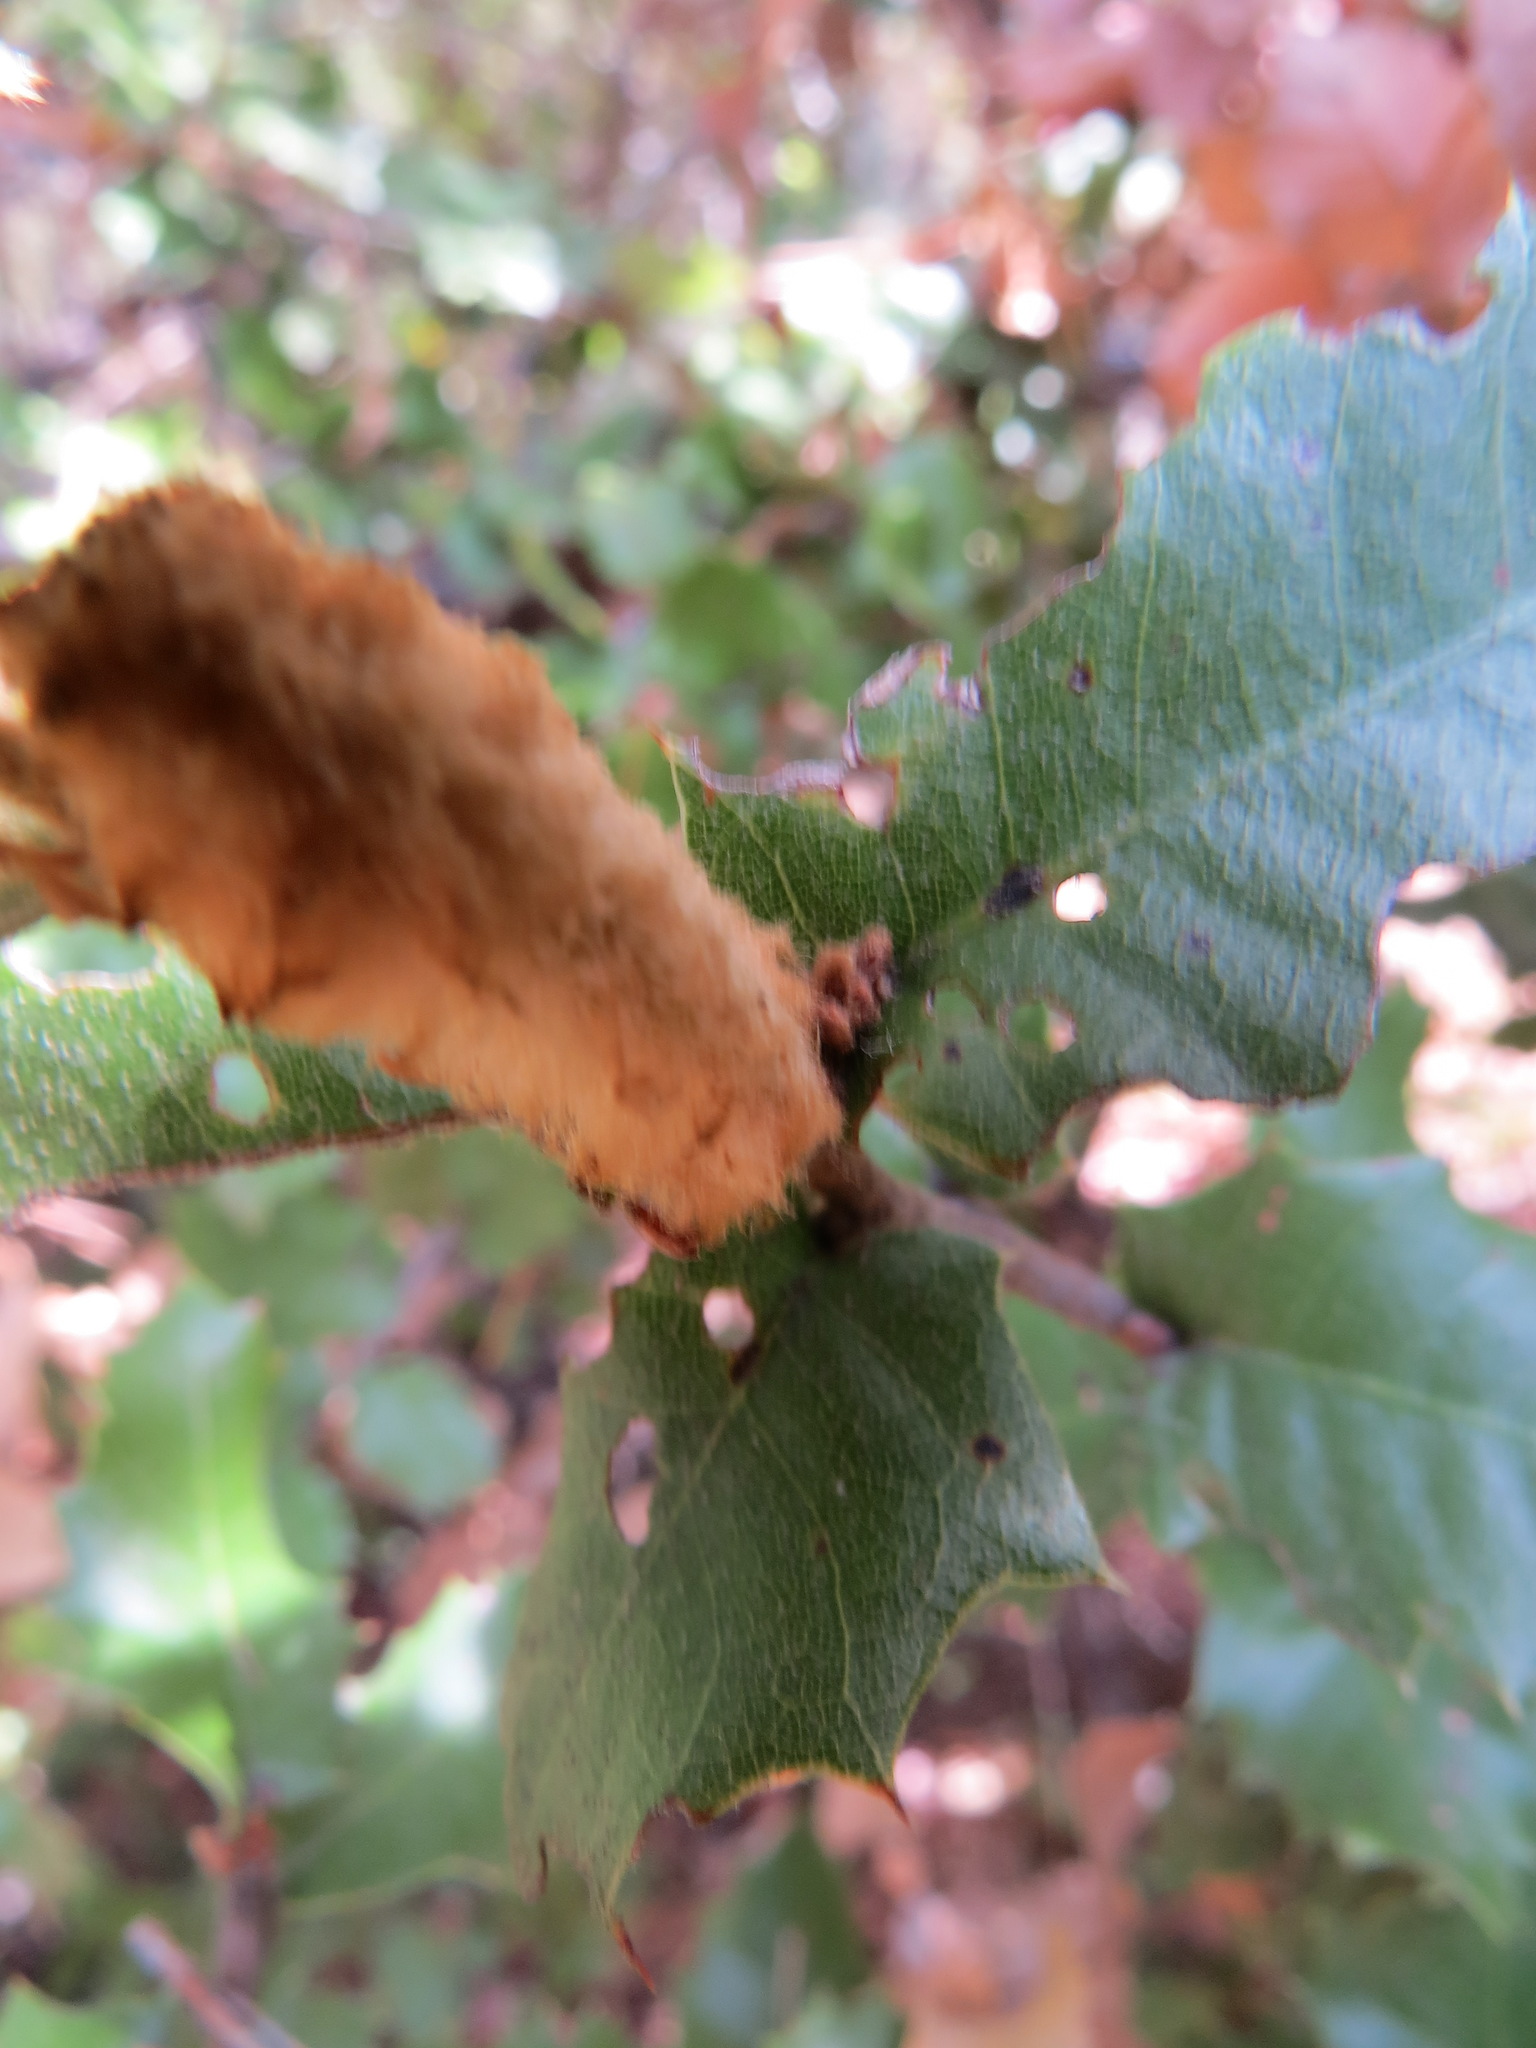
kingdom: Animalia
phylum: Arthropoda
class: Insecta
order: Hymenoptera
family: Cynipidae
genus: Heteroecus
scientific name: Heteroecus
